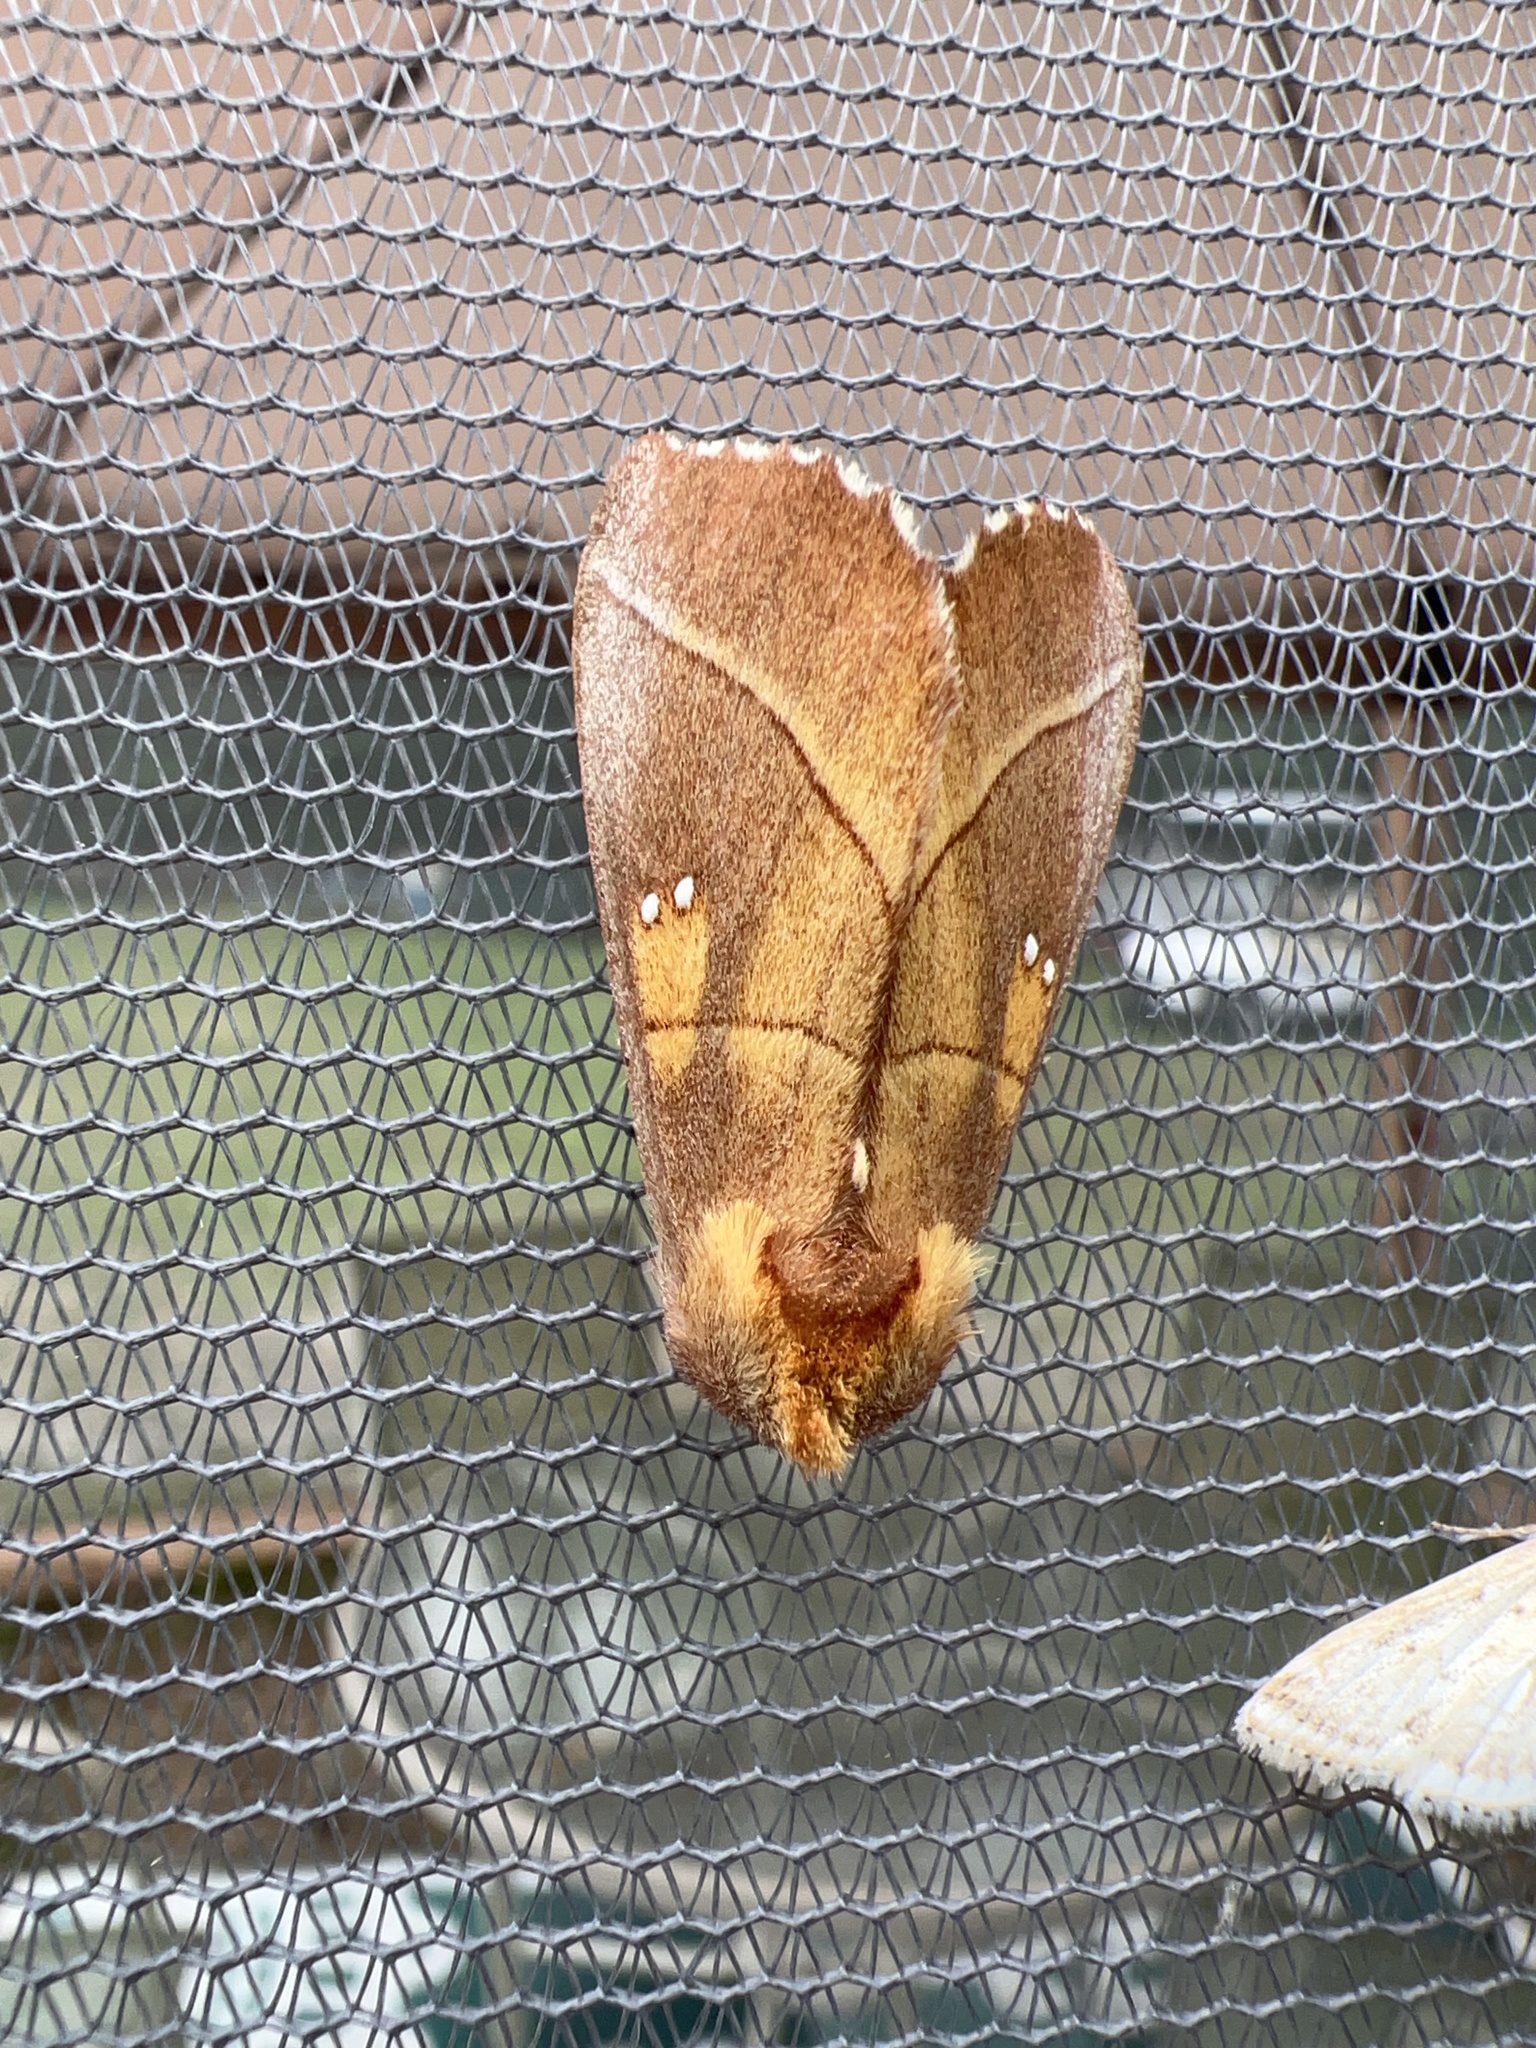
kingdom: Animalia
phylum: Arthropoda
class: Insecta
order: Lepidoptera
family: Notodontidae
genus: Nadata
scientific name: Nadata gibbosa
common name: White-dotted prominent
